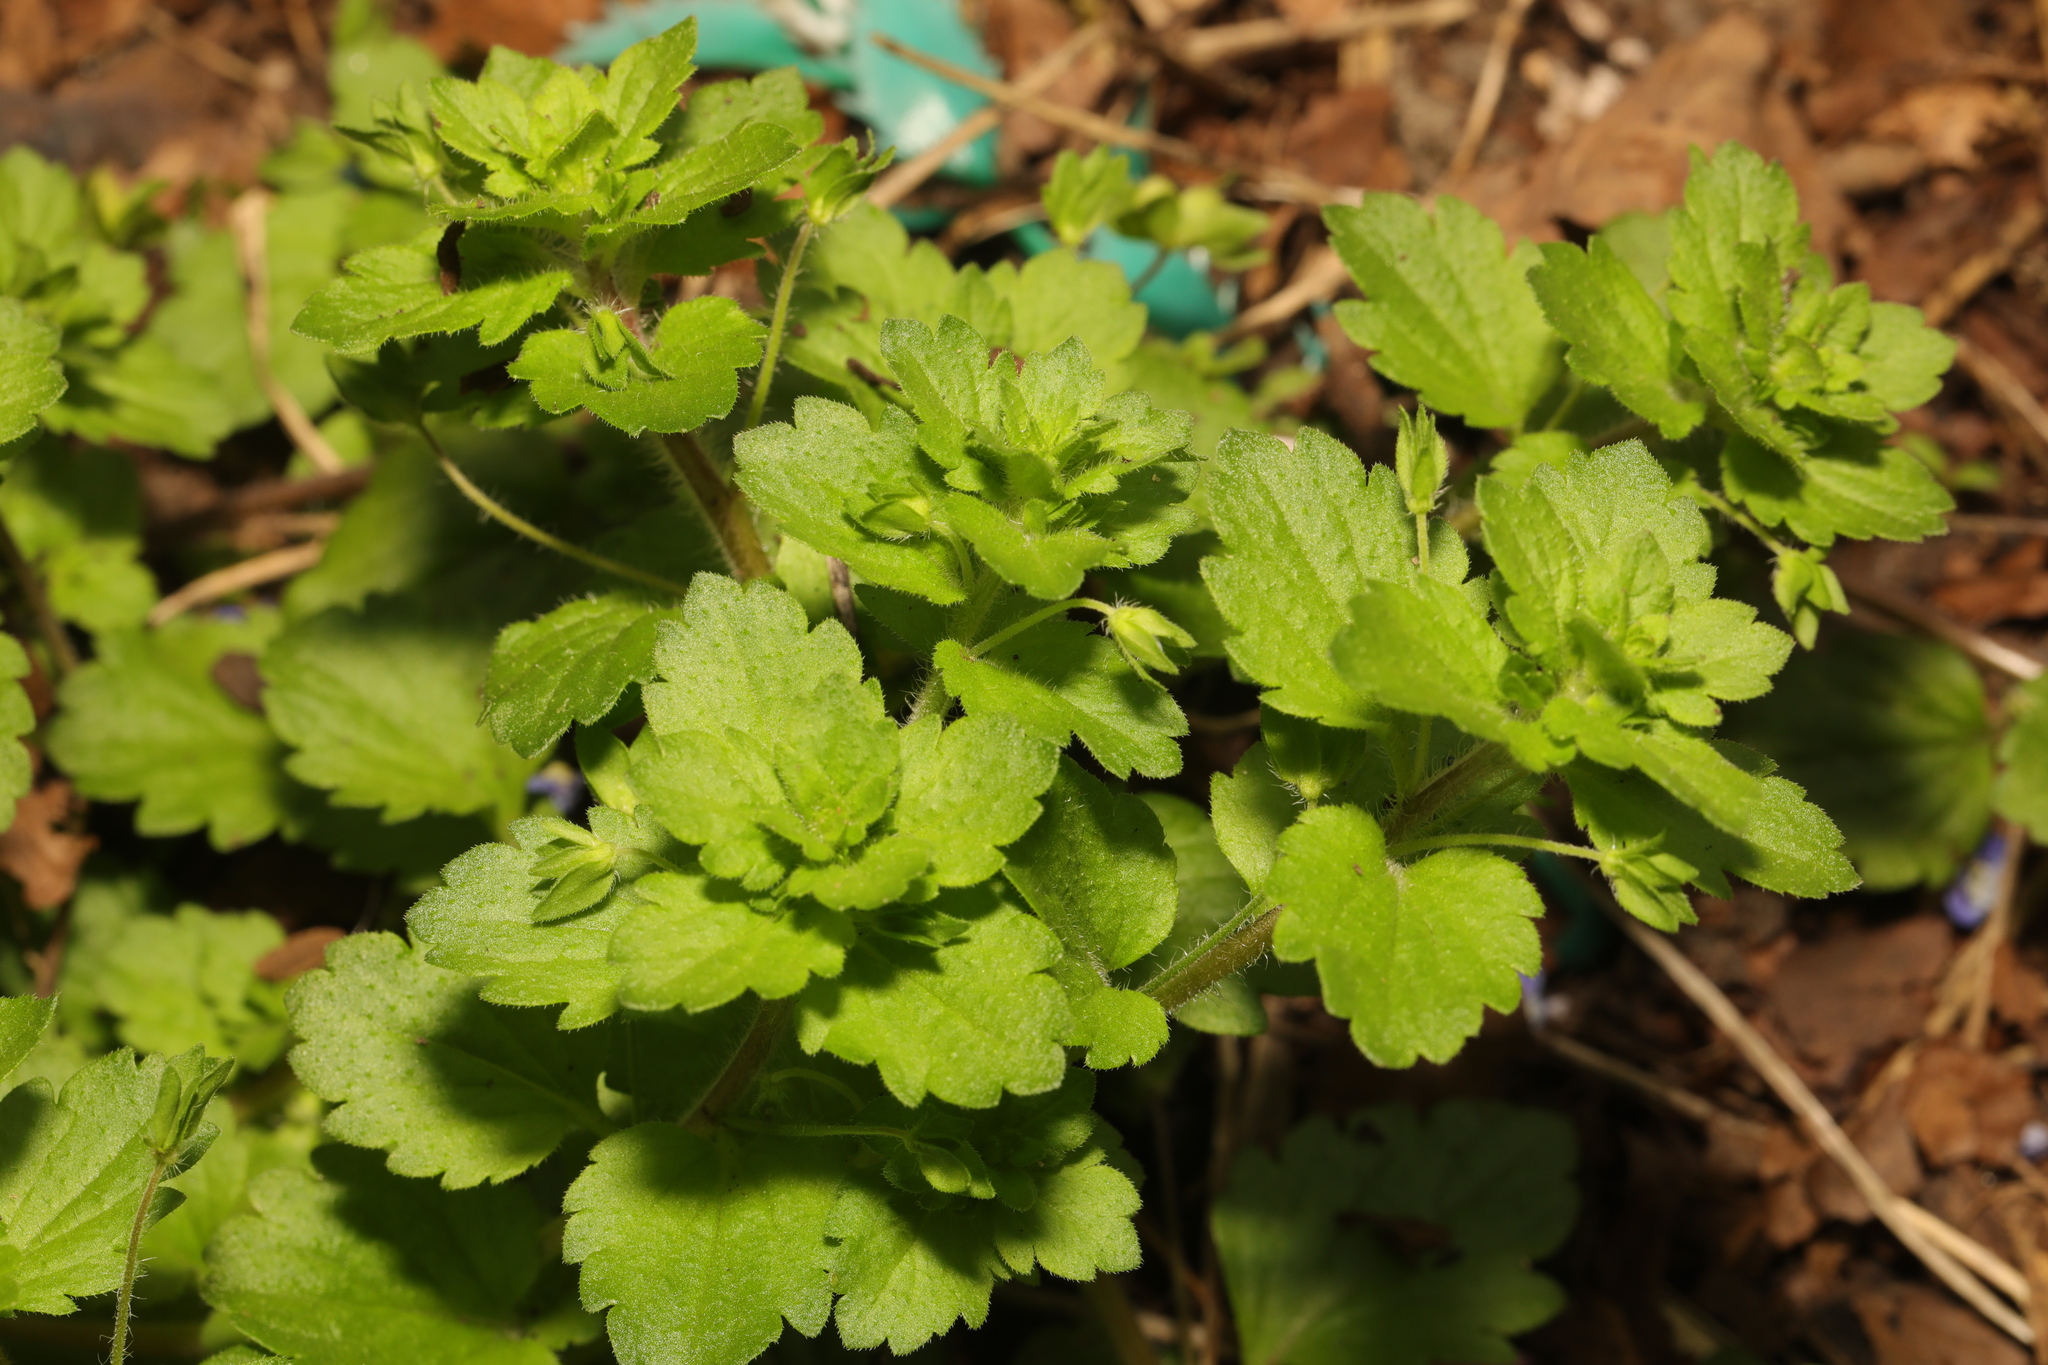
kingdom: Plantae
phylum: Tracheophyta
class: Magnoliopsida
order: Lamiales
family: Plantaginaceae
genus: Veronica
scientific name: Veronica persica
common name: Common field-speedwell
